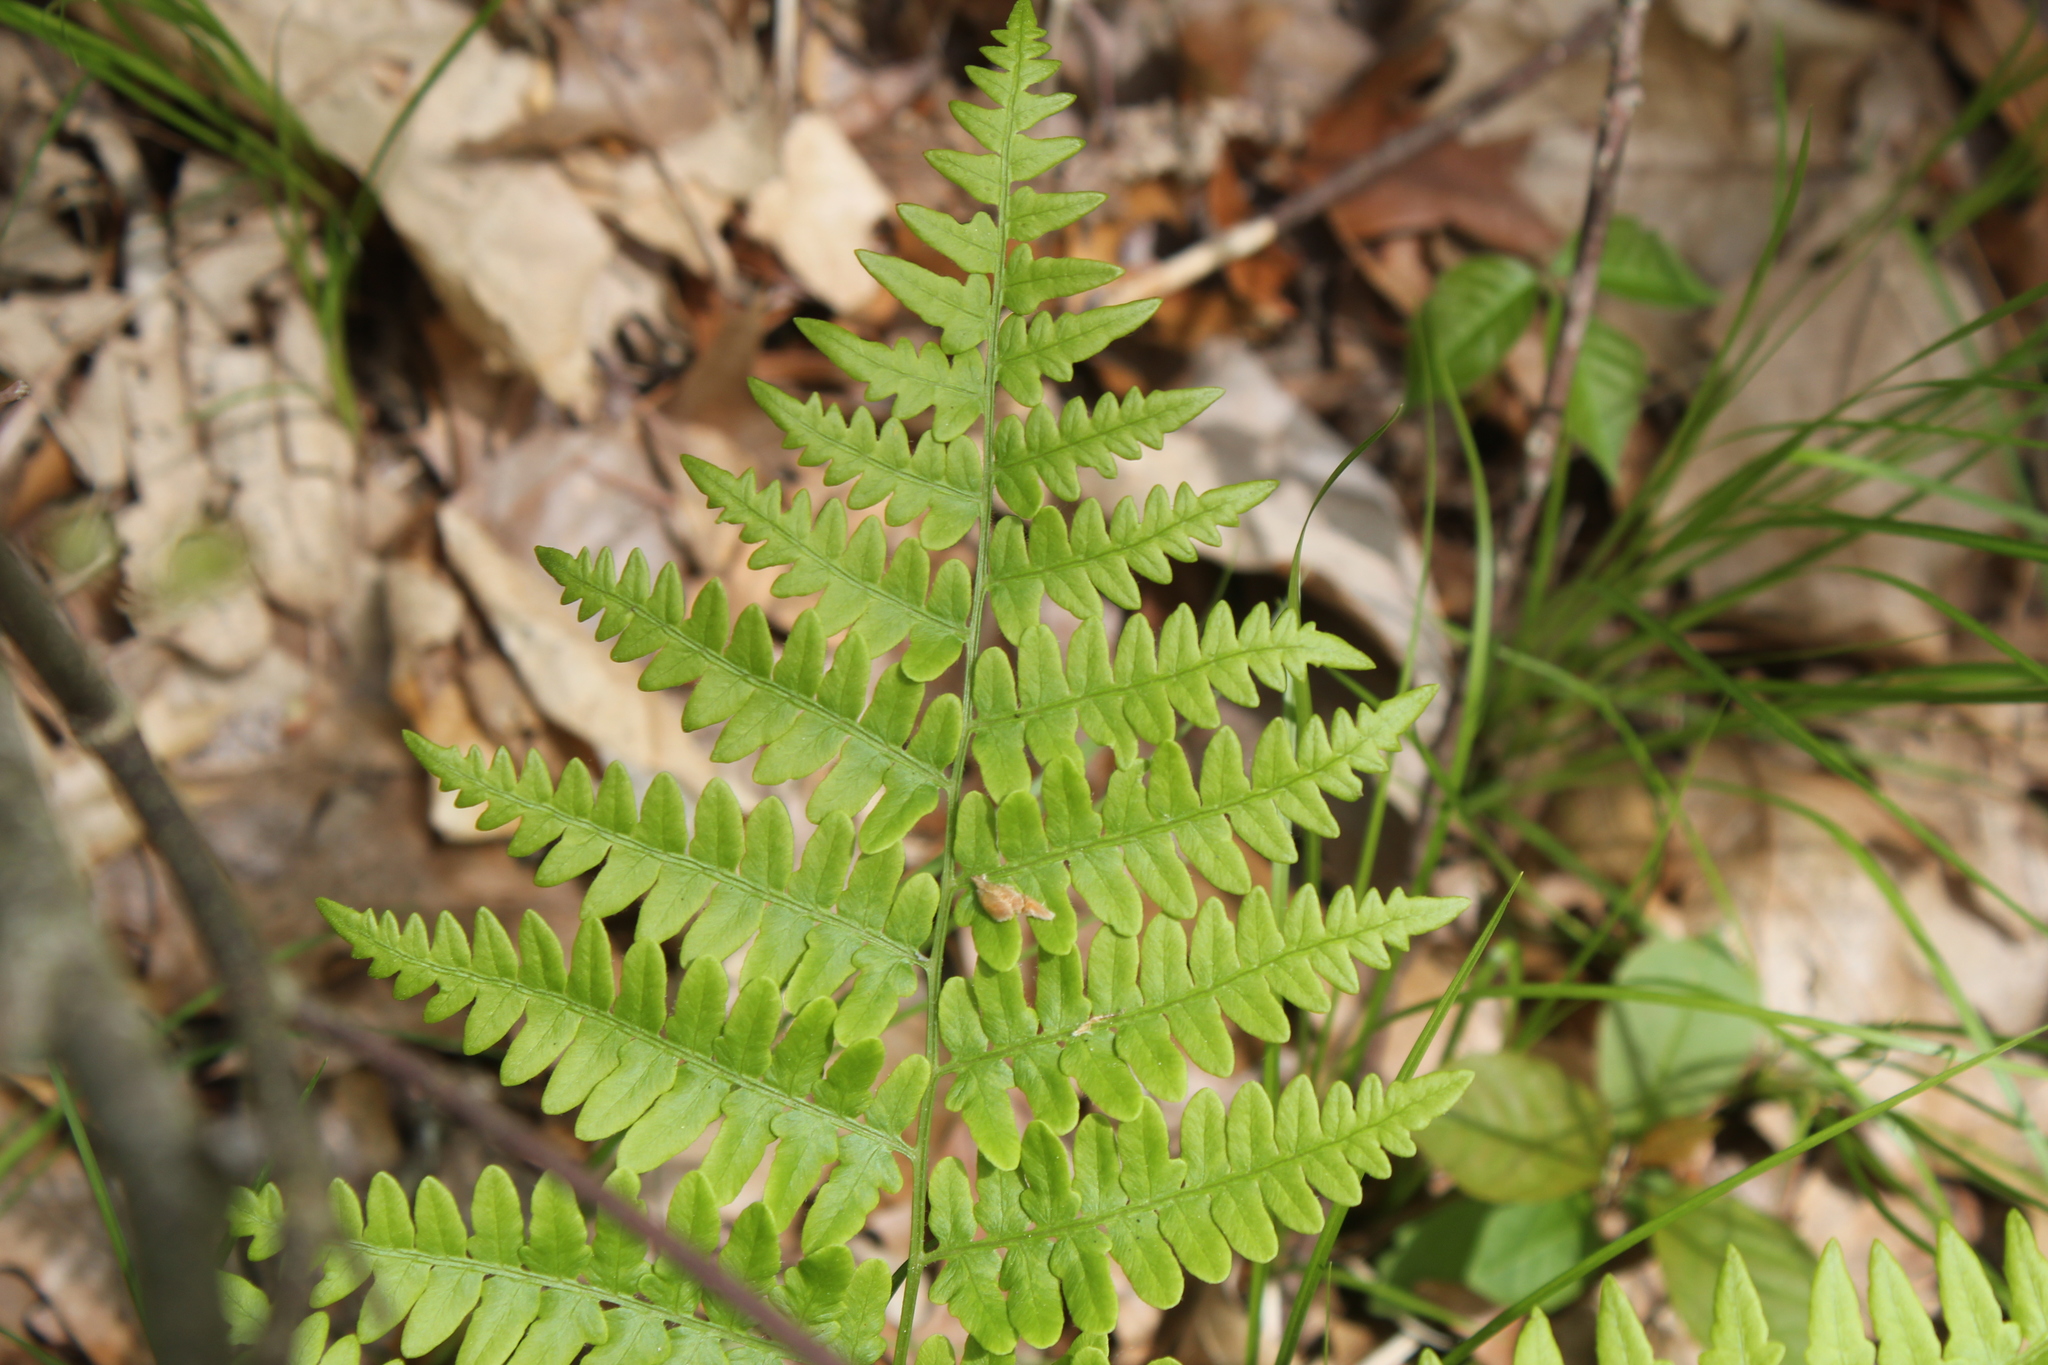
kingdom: Plantae
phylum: Tracheophyta
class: Polypodiopsida
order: Polypodiales
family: Dennstaedtiaceae
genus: Pteridium
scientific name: Pteridium aquilinum
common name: Bracken
